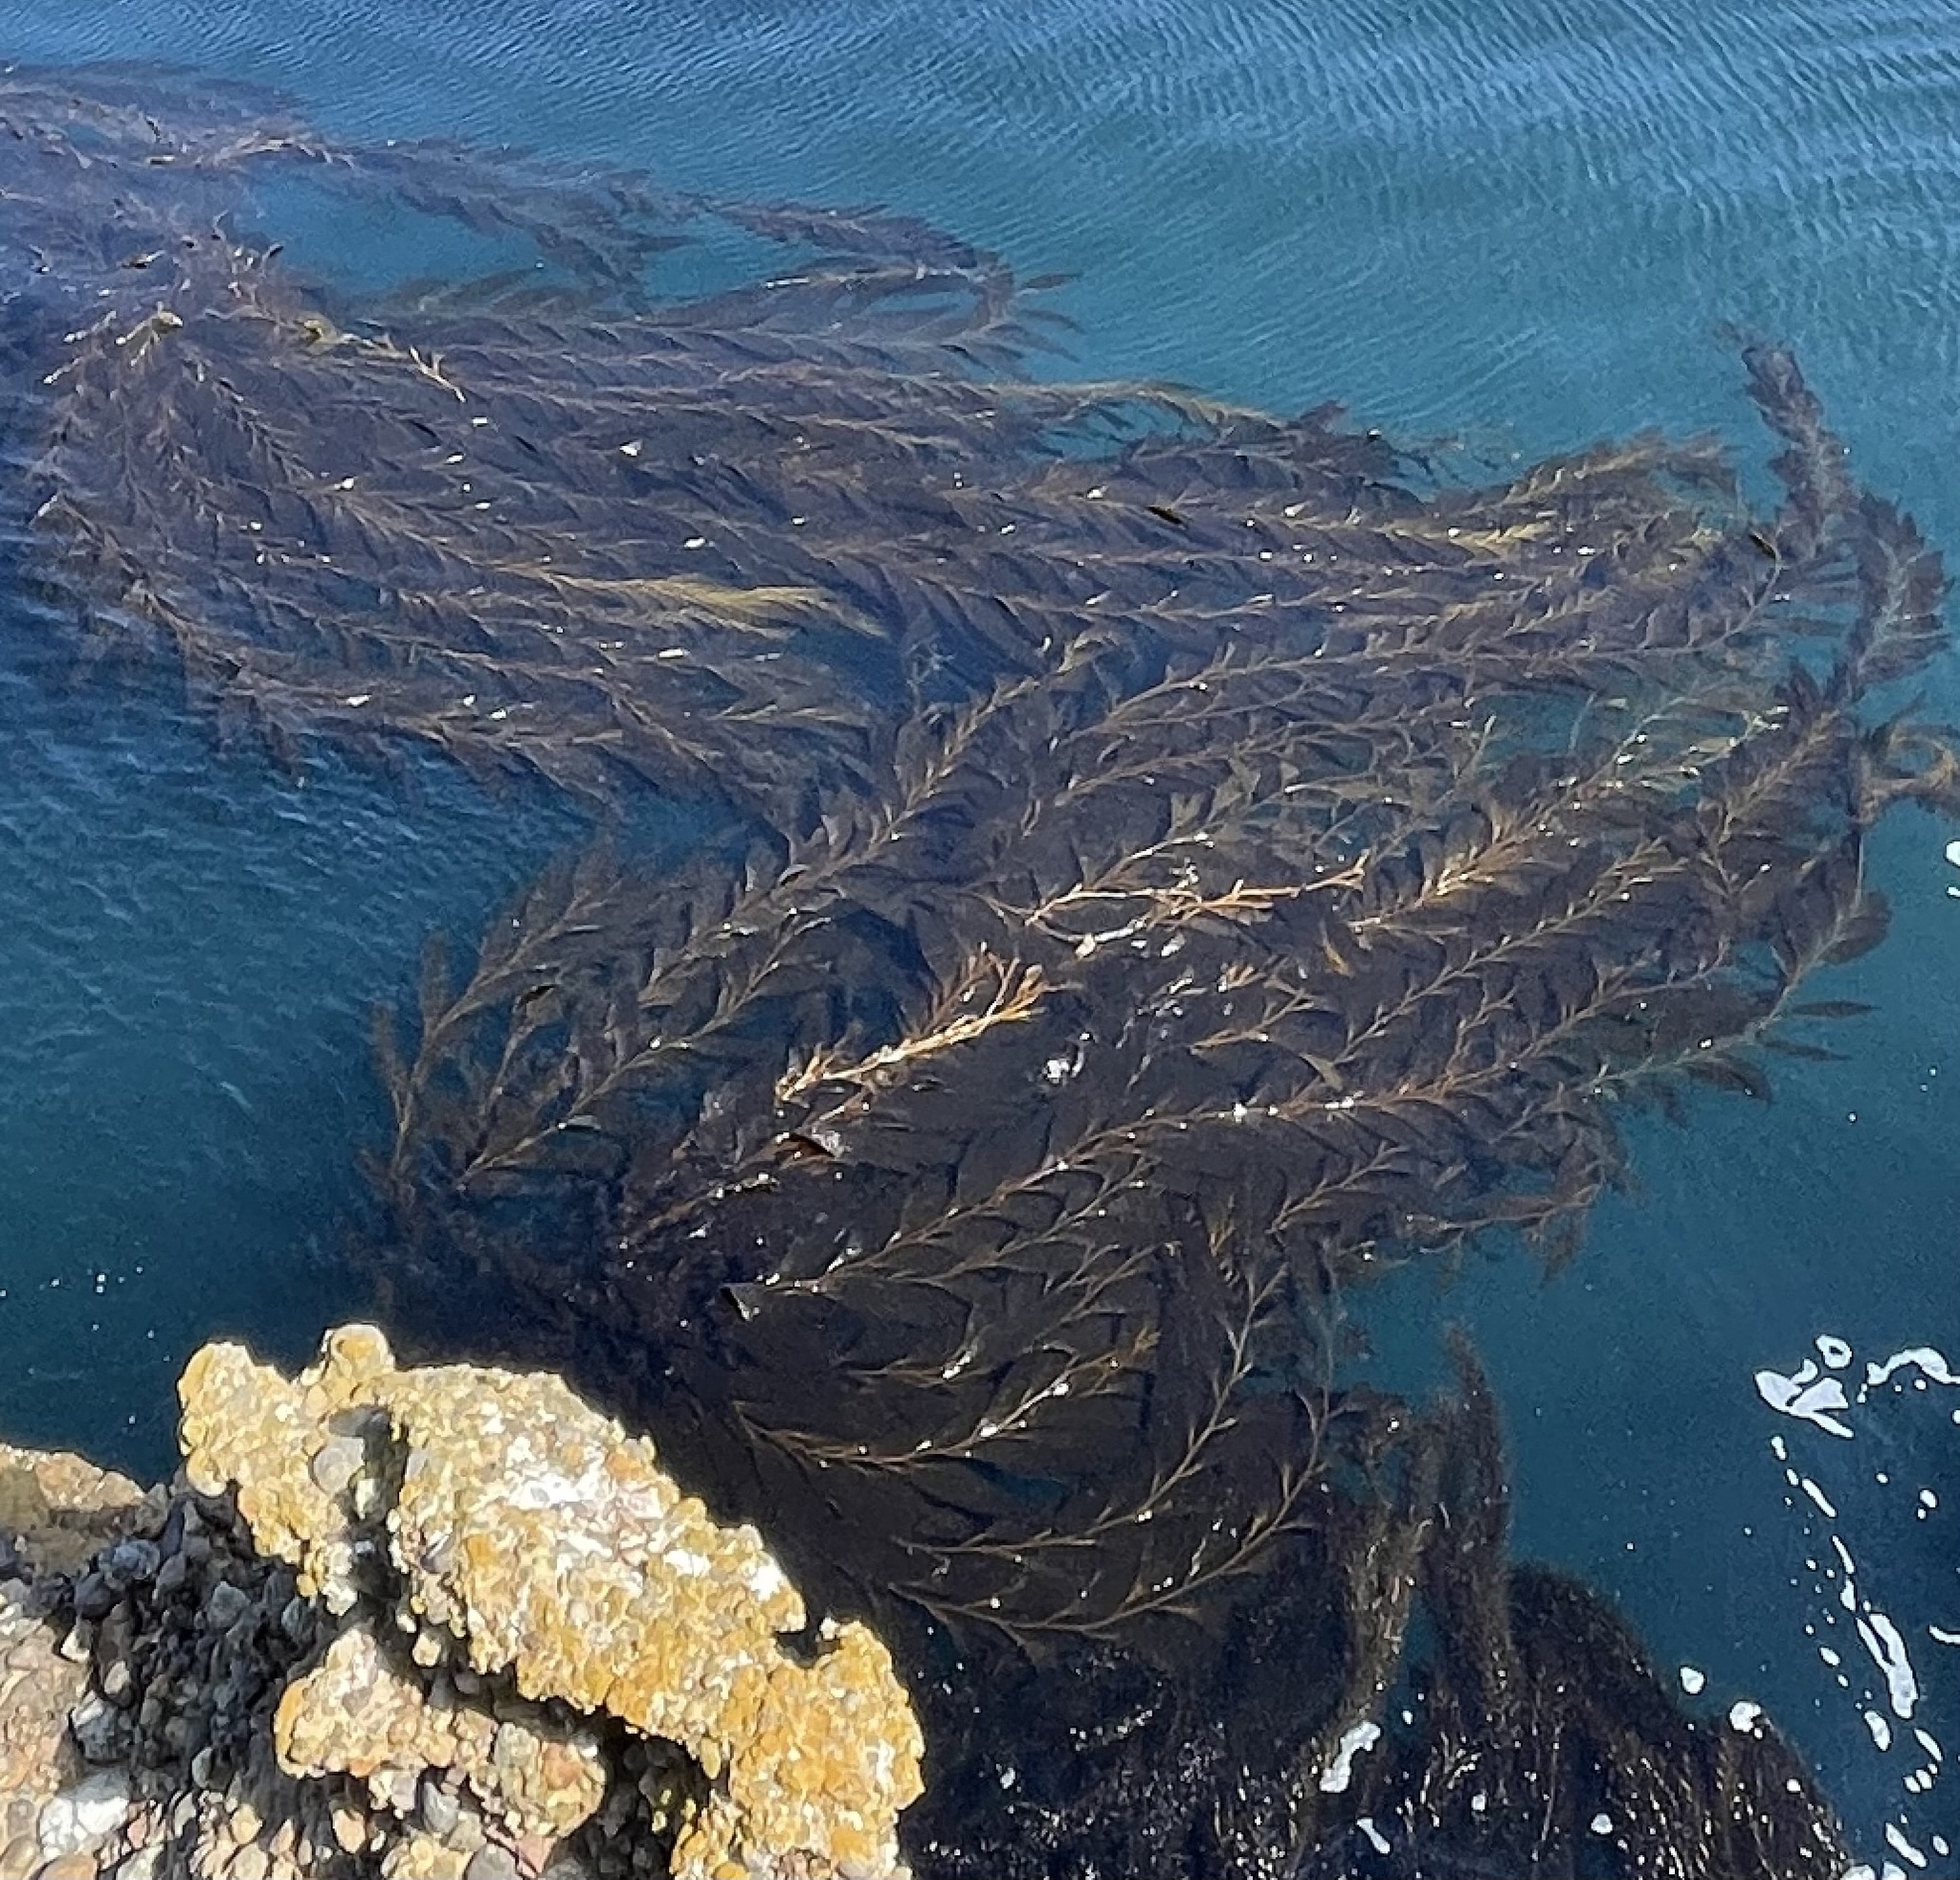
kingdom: Chromista
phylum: Ochrophyta
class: Phaeophyceae
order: Laminariales
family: Laminariaceae
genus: Macrocystis
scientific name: Macrocystis pyrifera
